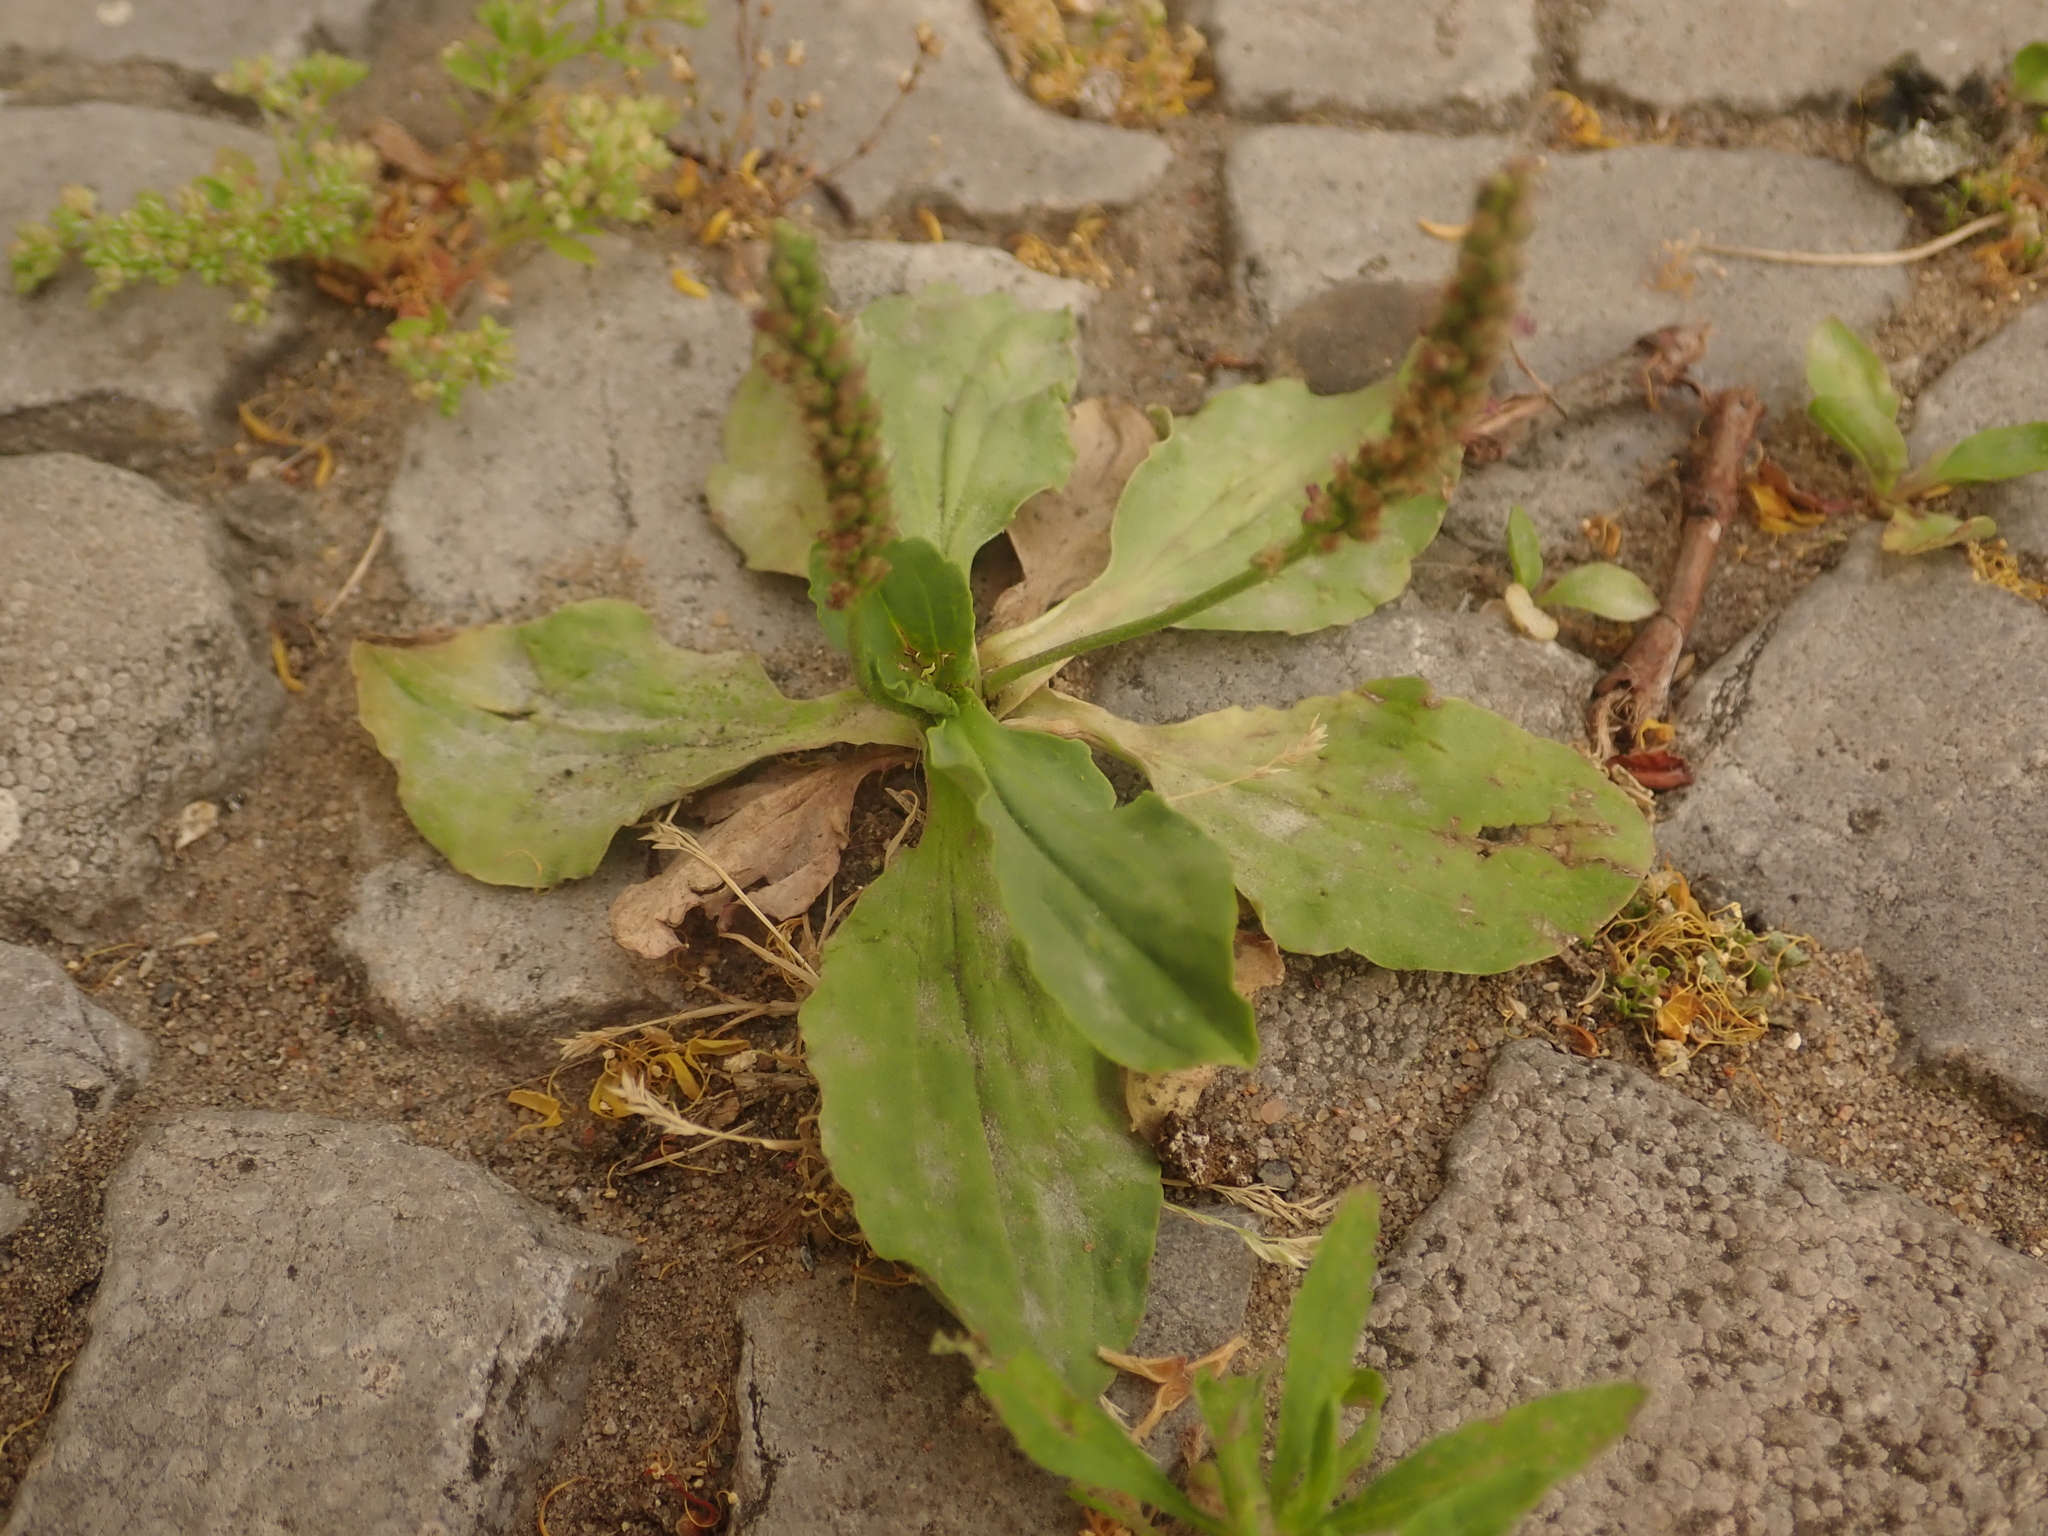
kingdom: Plantae
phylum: Tracheophyta
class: Magnoliopsida
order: Lamiales
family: Plantaginaceae
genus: Plantago
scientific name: Plantago major
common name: Common plantain
